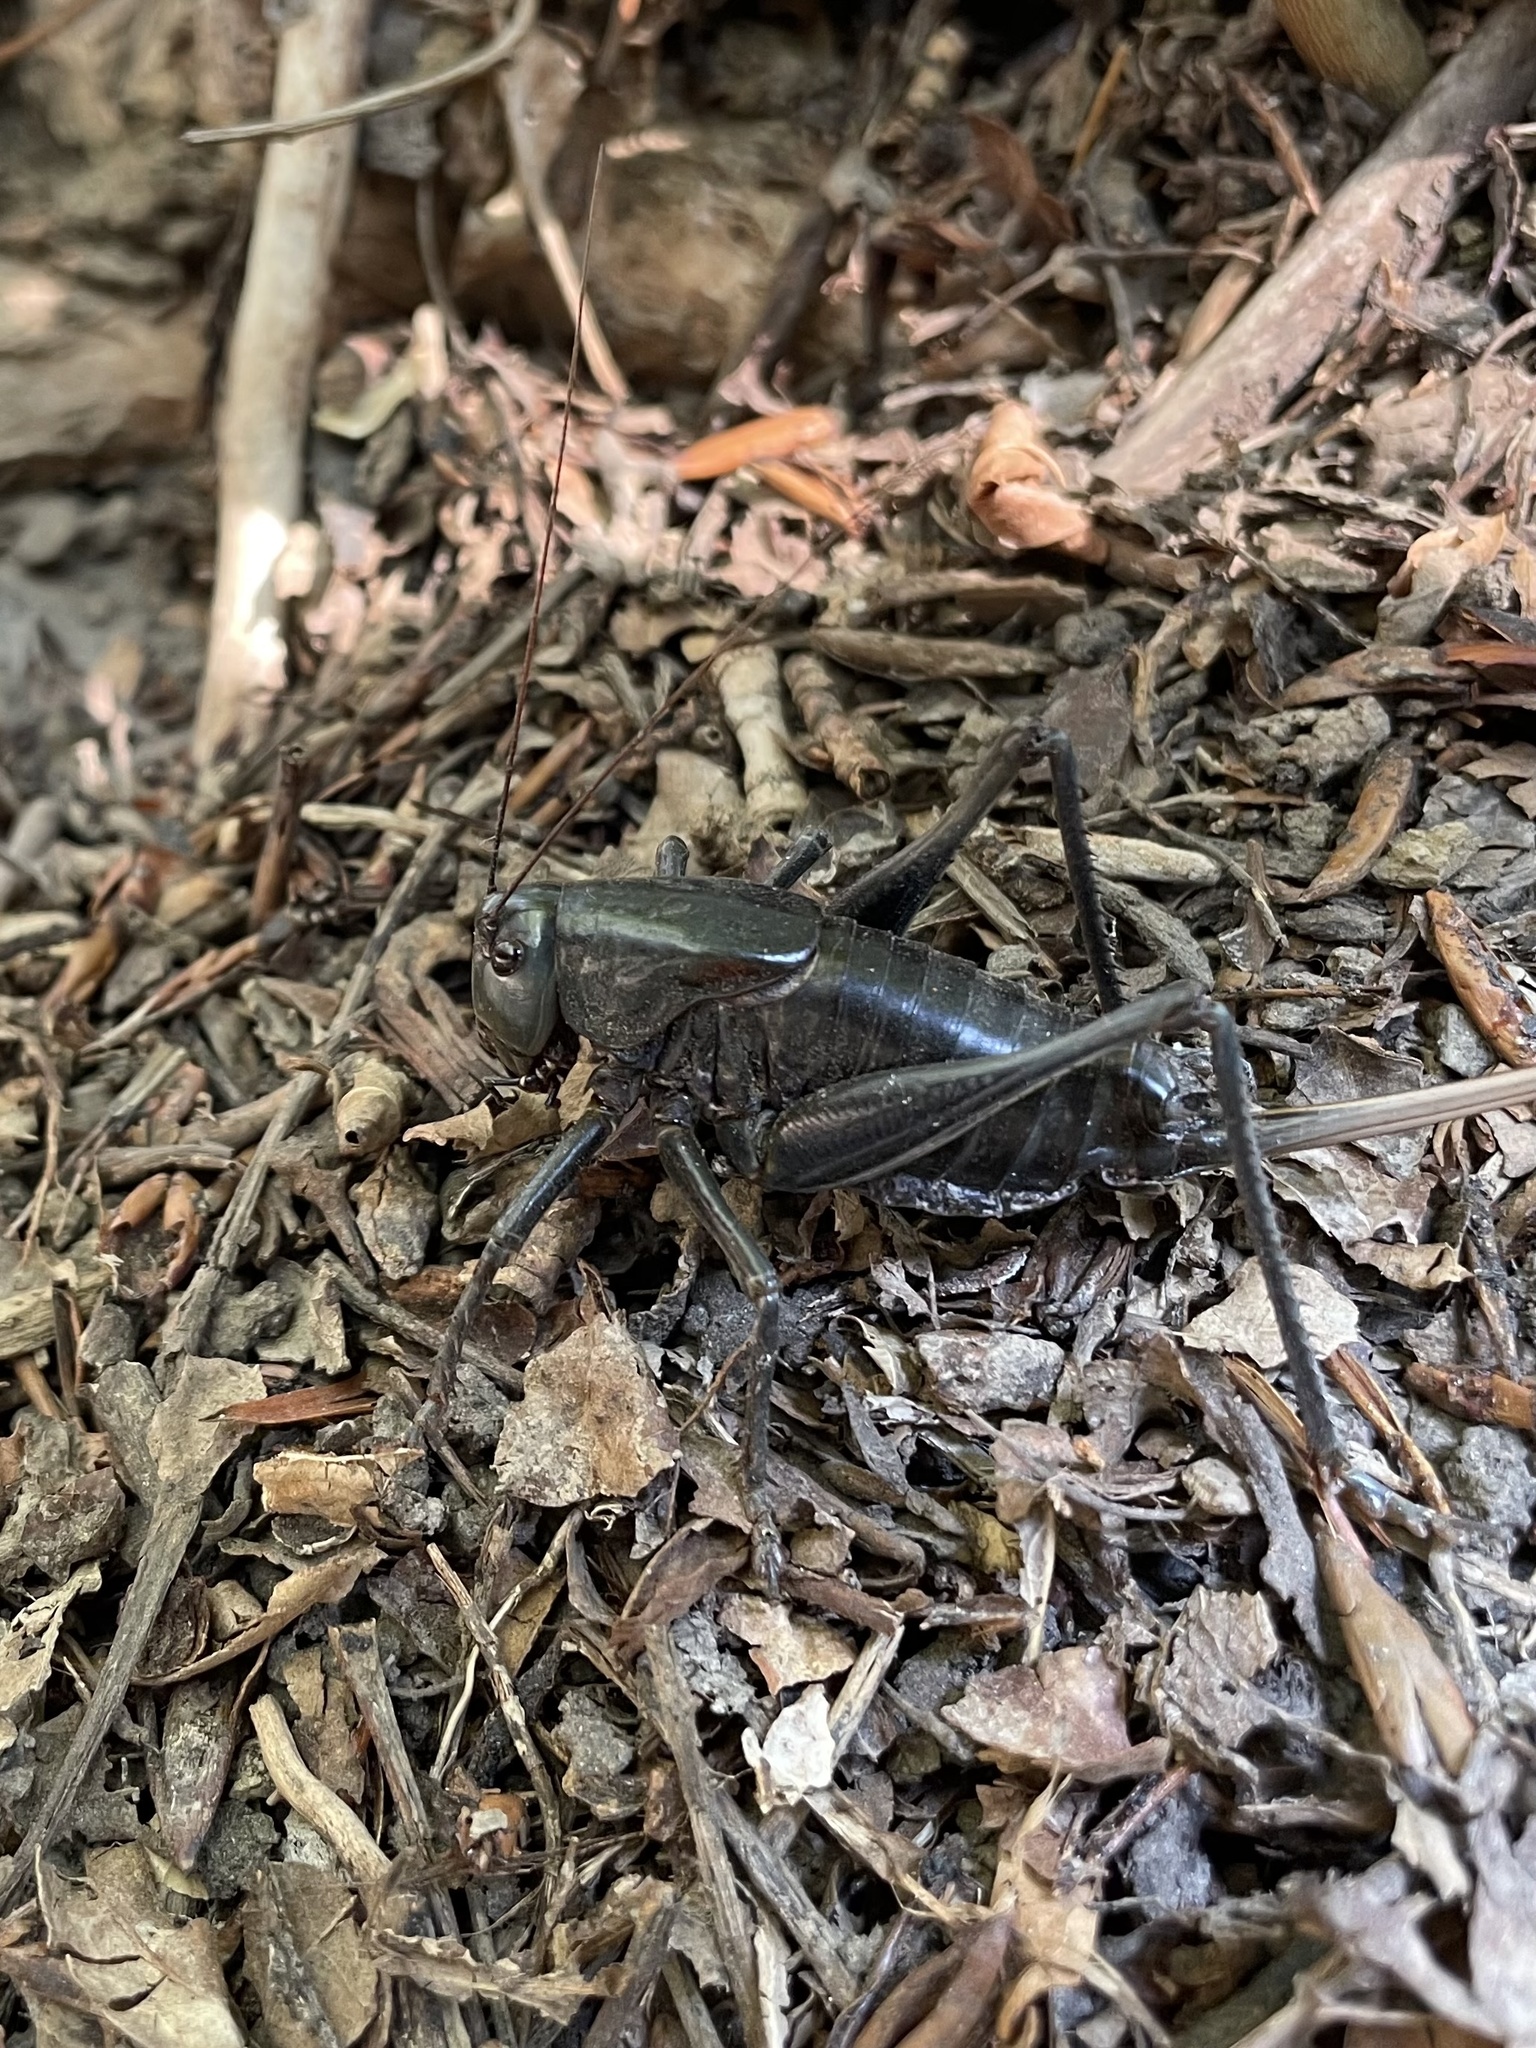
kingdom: Animalia
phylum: Arthropoda
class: Insecta
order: Orthoptera
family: Tettigoniidae
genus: Anabrus
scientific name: Anabrus simplex
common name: Mormon cricket
